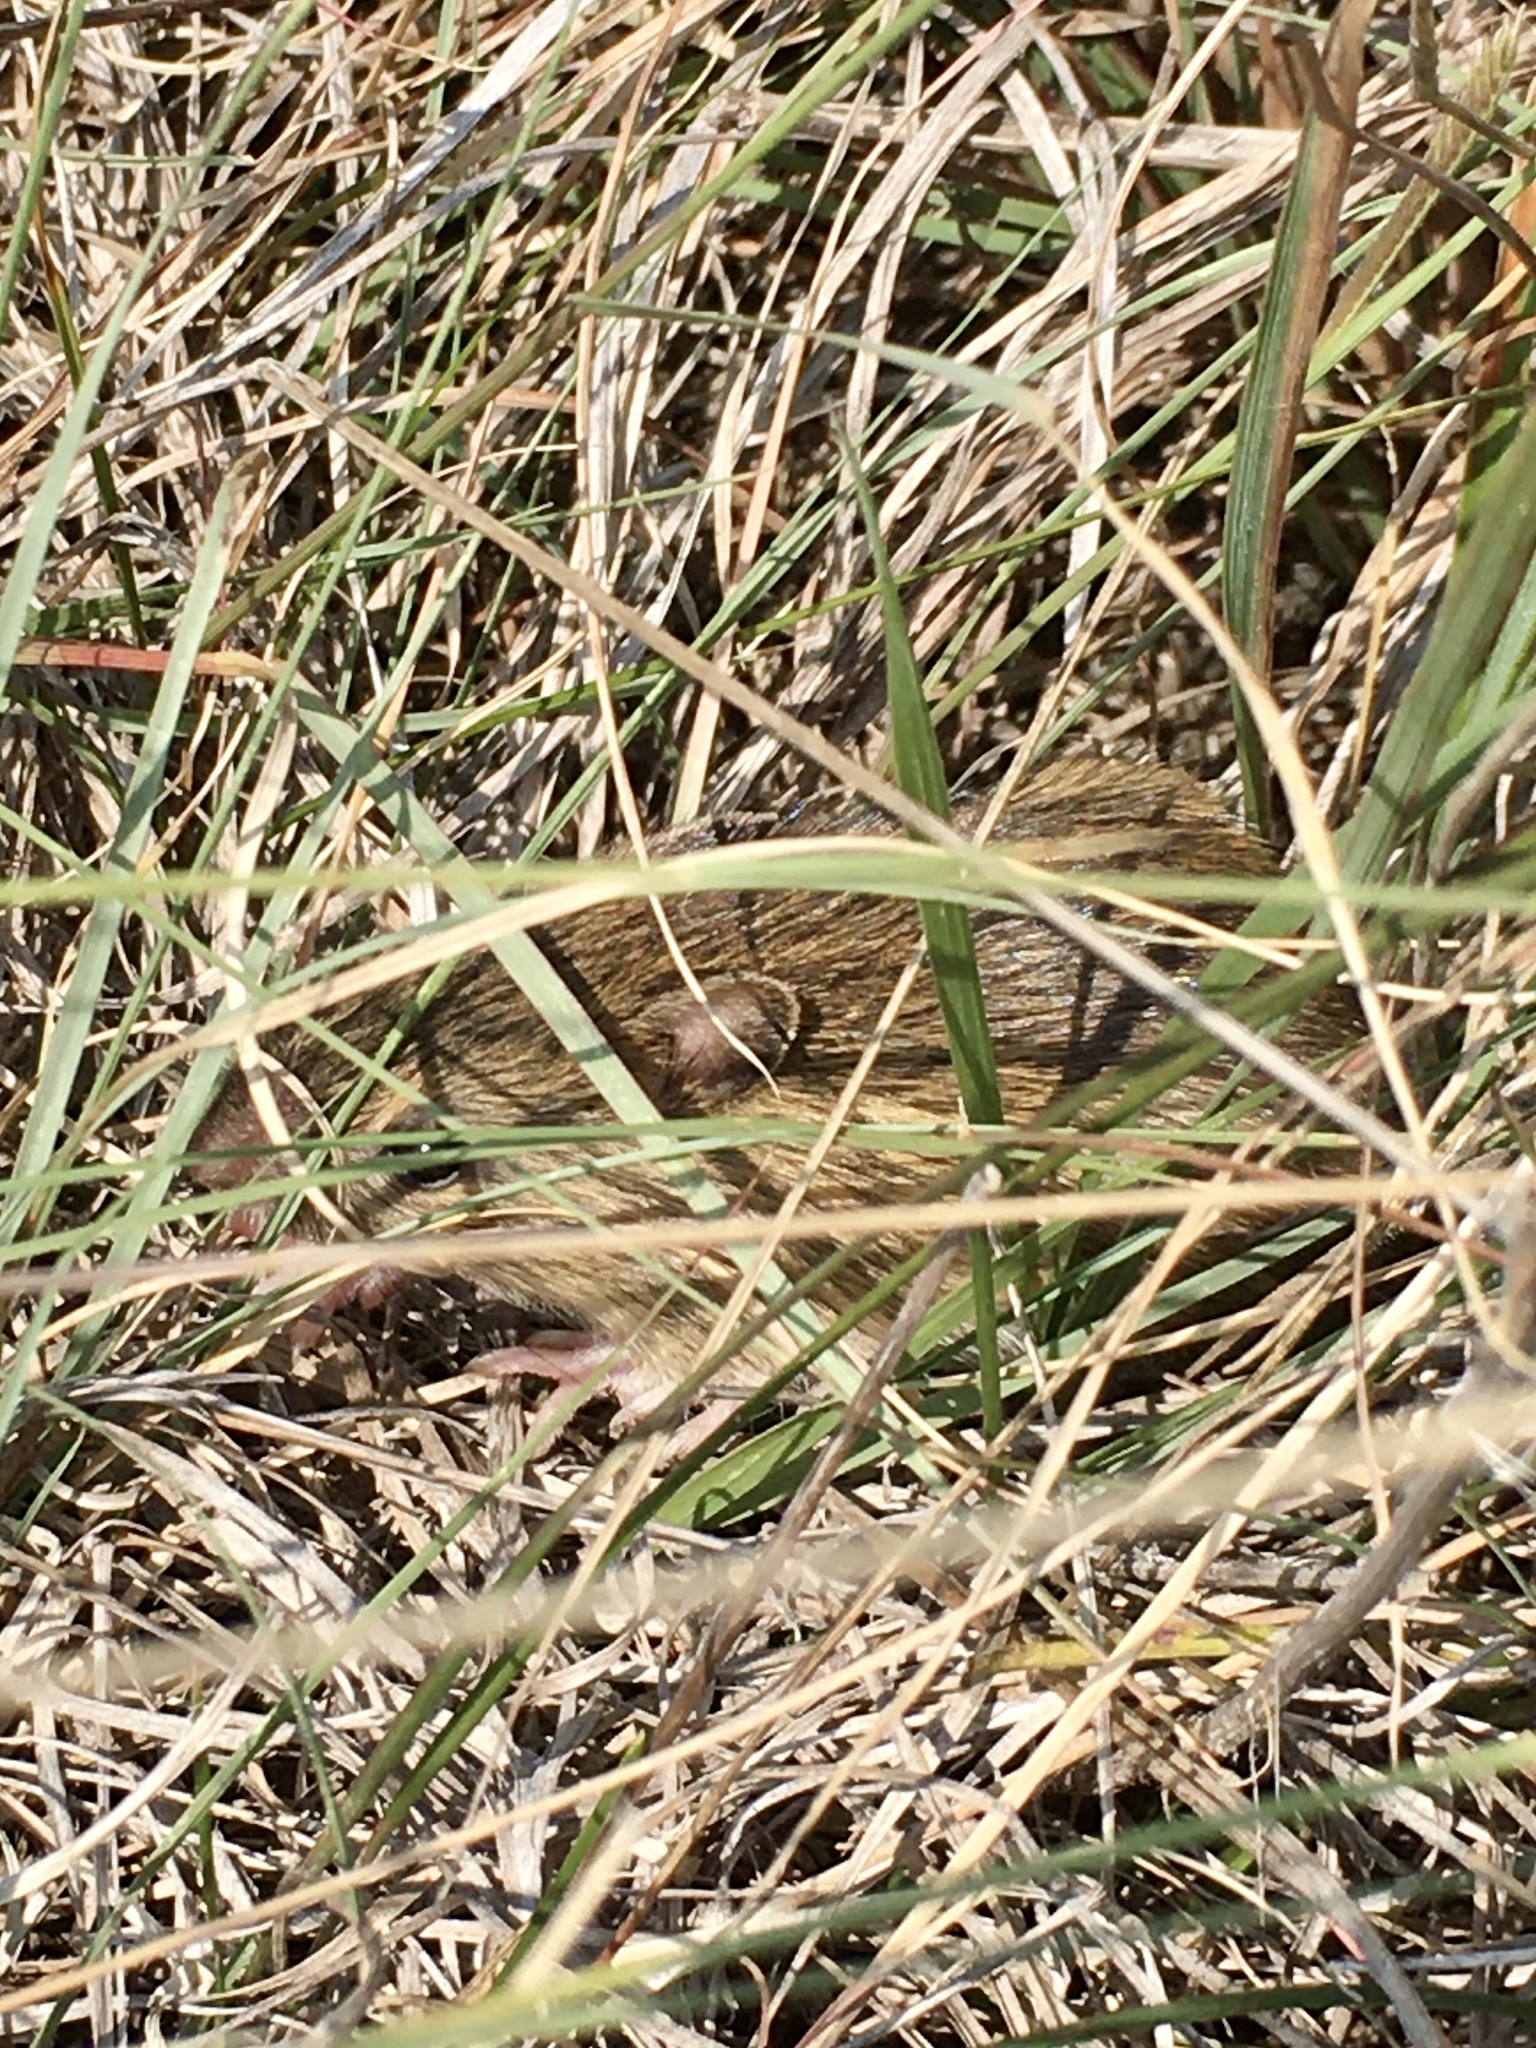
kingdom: Animalia
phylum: Chordata
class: Mammalia
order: Rodentia
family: Dipodidae
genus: Zapus
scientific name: Zapus hudsonius
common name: Meadow jumping mouse
